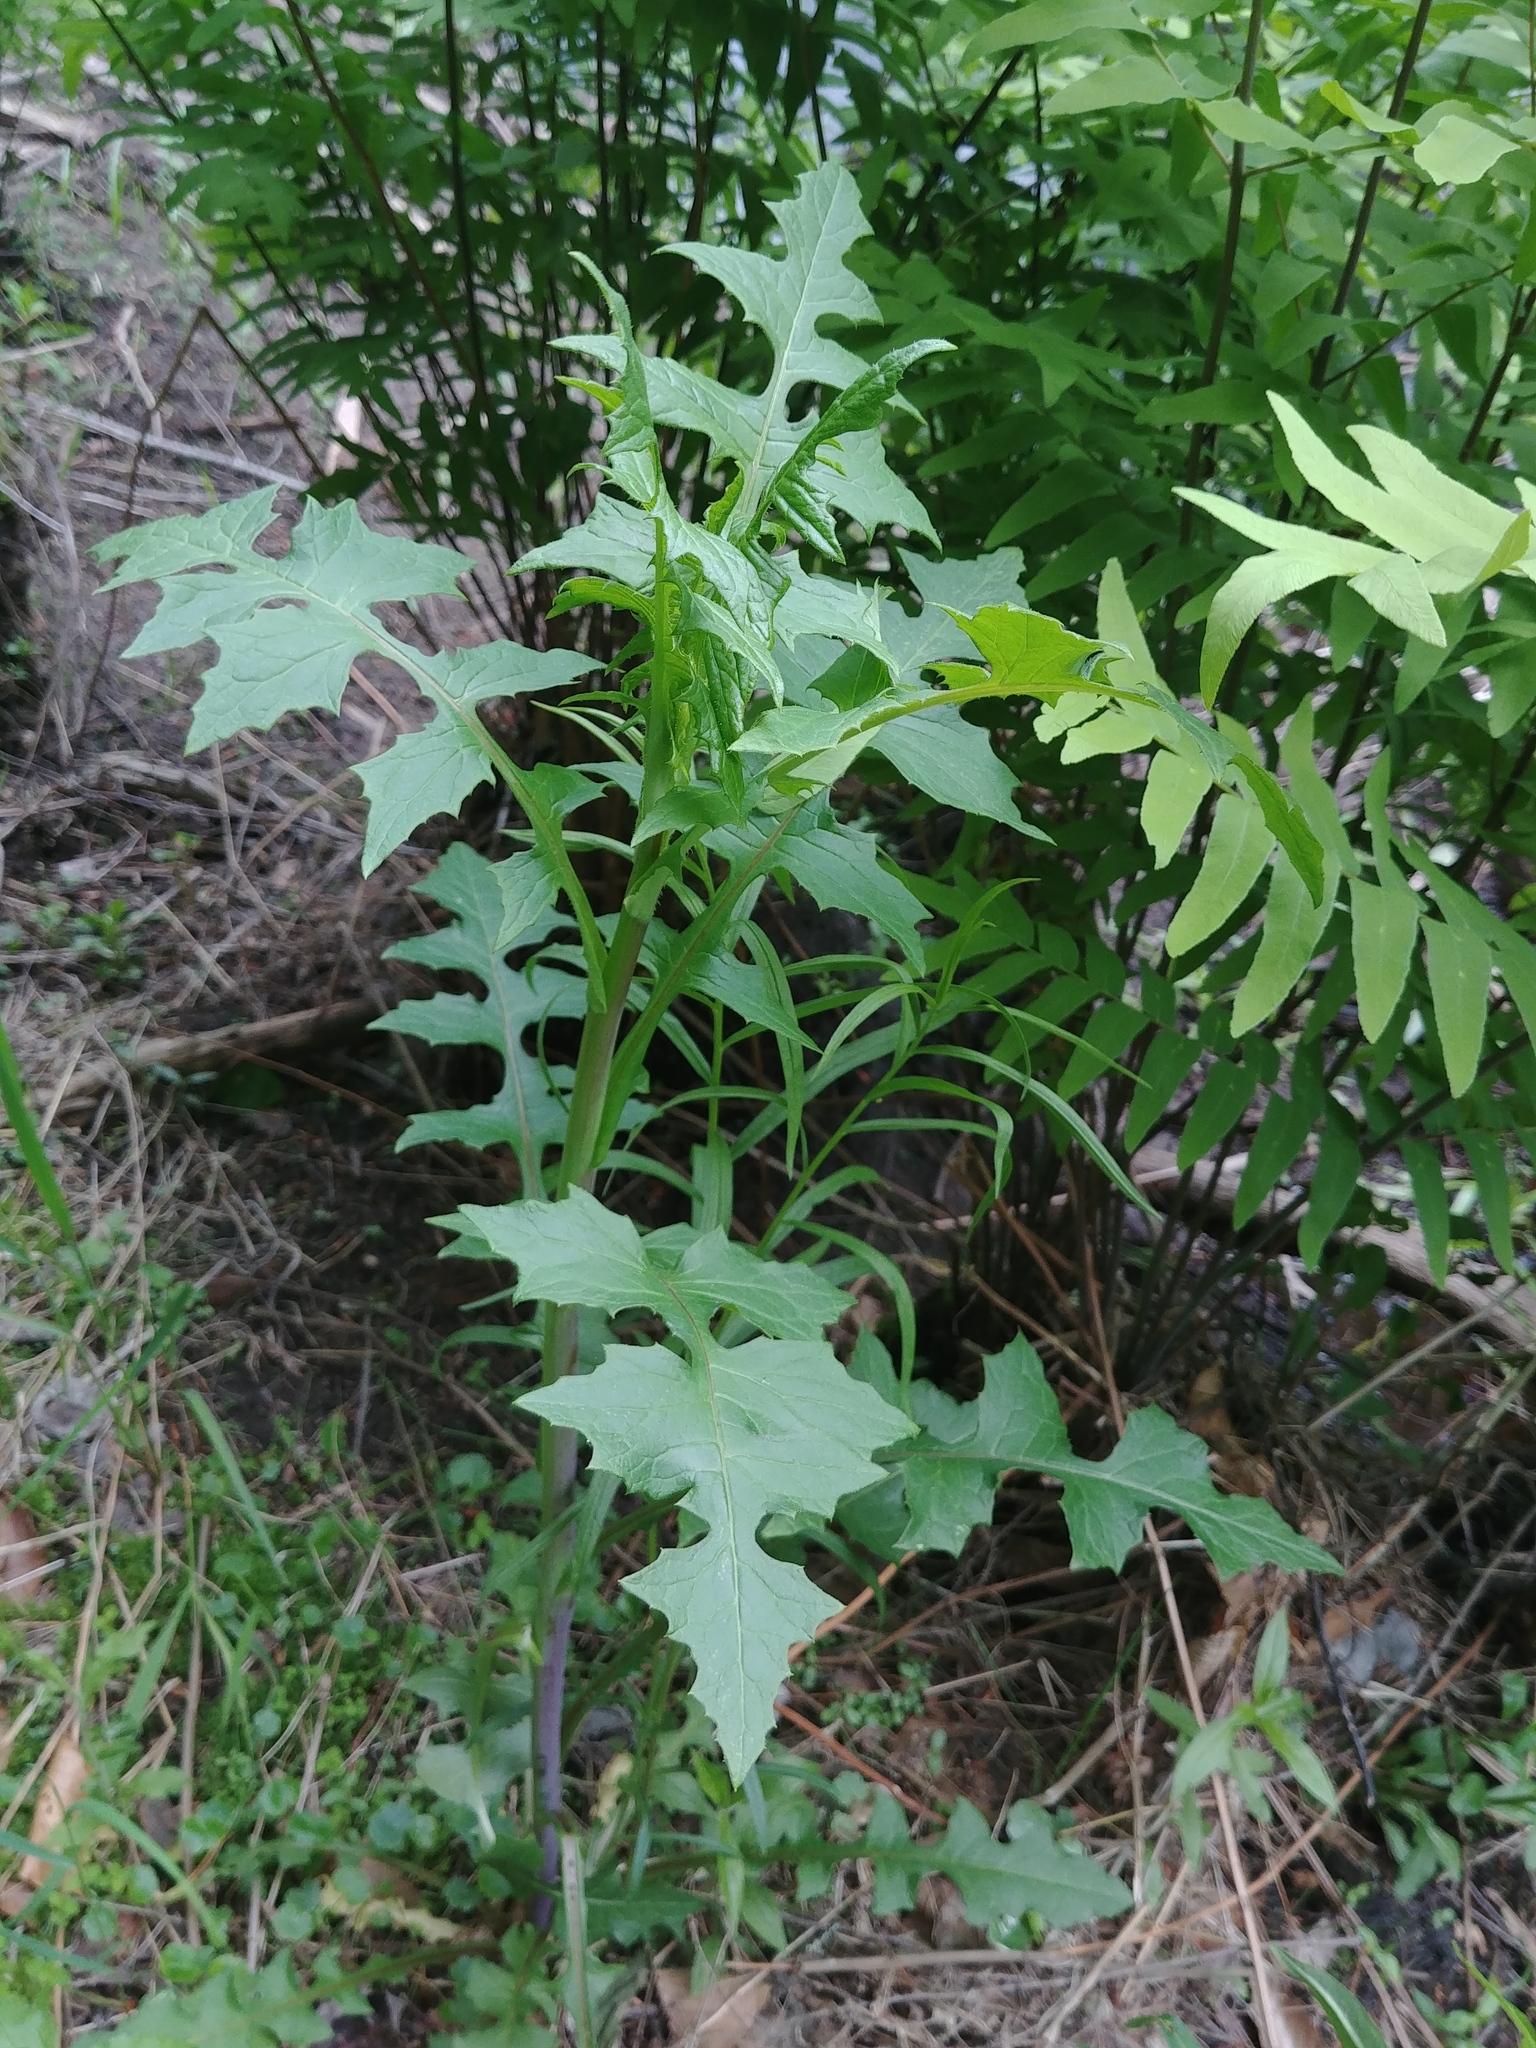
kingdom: Plantae
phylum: Tracheophyta
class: Magnoliopsida
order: Asterales
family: Asteraceae
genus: Lactuca
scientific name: Lactuca biennis
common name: Blue wood lettuce
